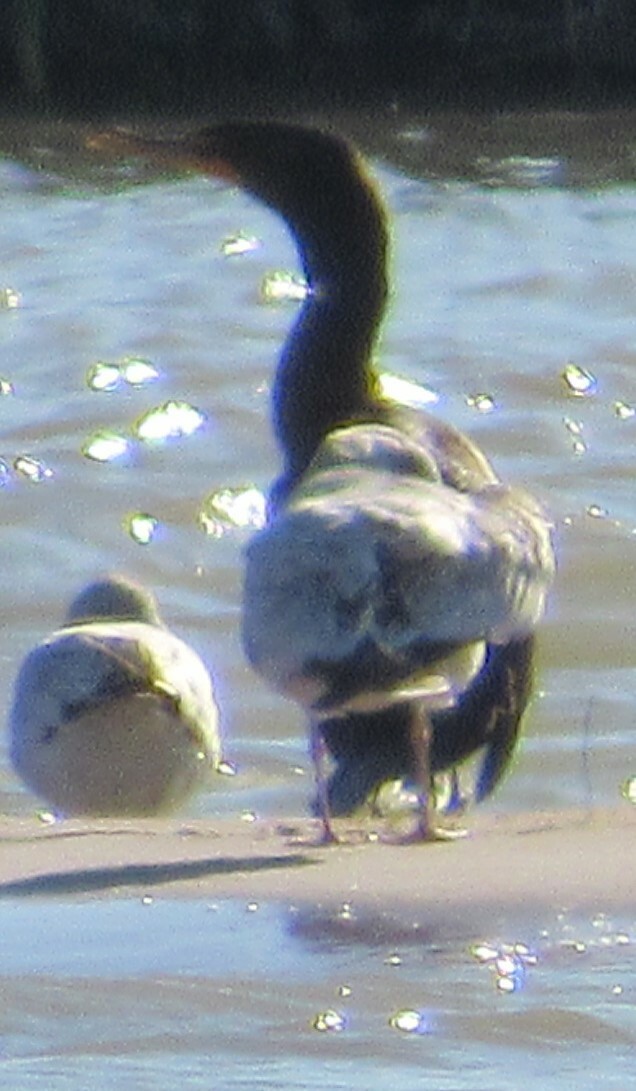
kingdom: Animalia
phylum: Chordata
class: Aves
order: Suliformes
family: Phalacrocoracidae
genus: Phalacrocorax
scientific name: Phalacrocorax auritus
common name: Double-crested cormorant
